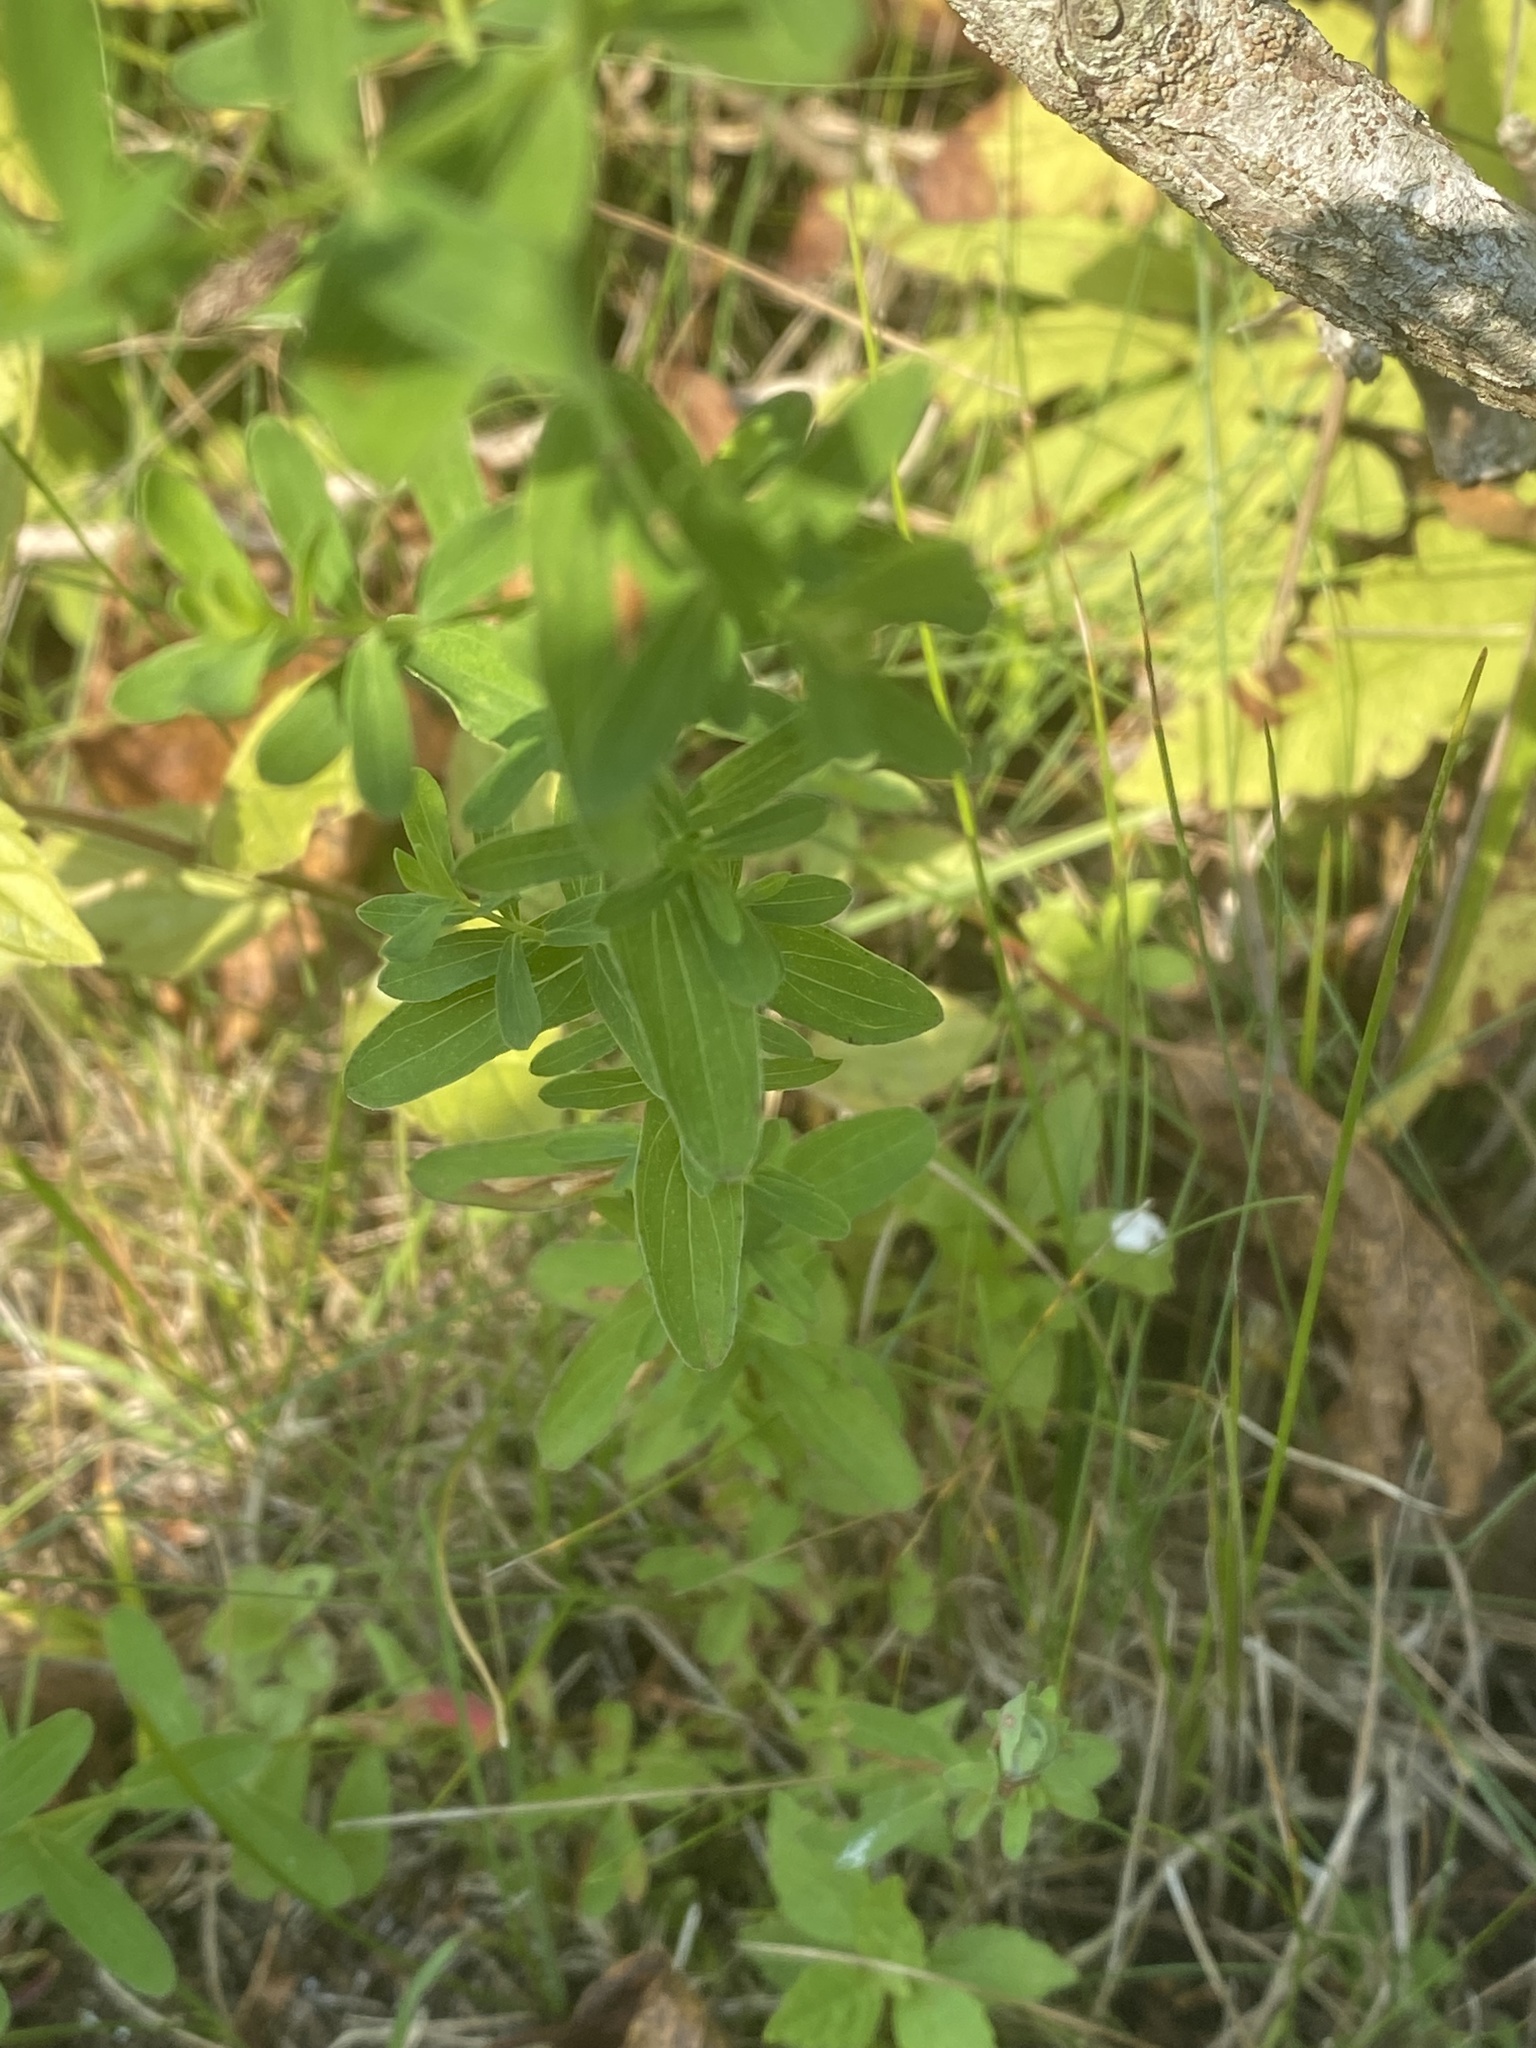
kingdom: Plantae
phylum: Tracheophyta
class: Magnoliopsida
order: Malpighiales
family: Hypericaceae
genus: Hypericum
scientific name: Hypericum perforatum
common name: Common st. johnswort
